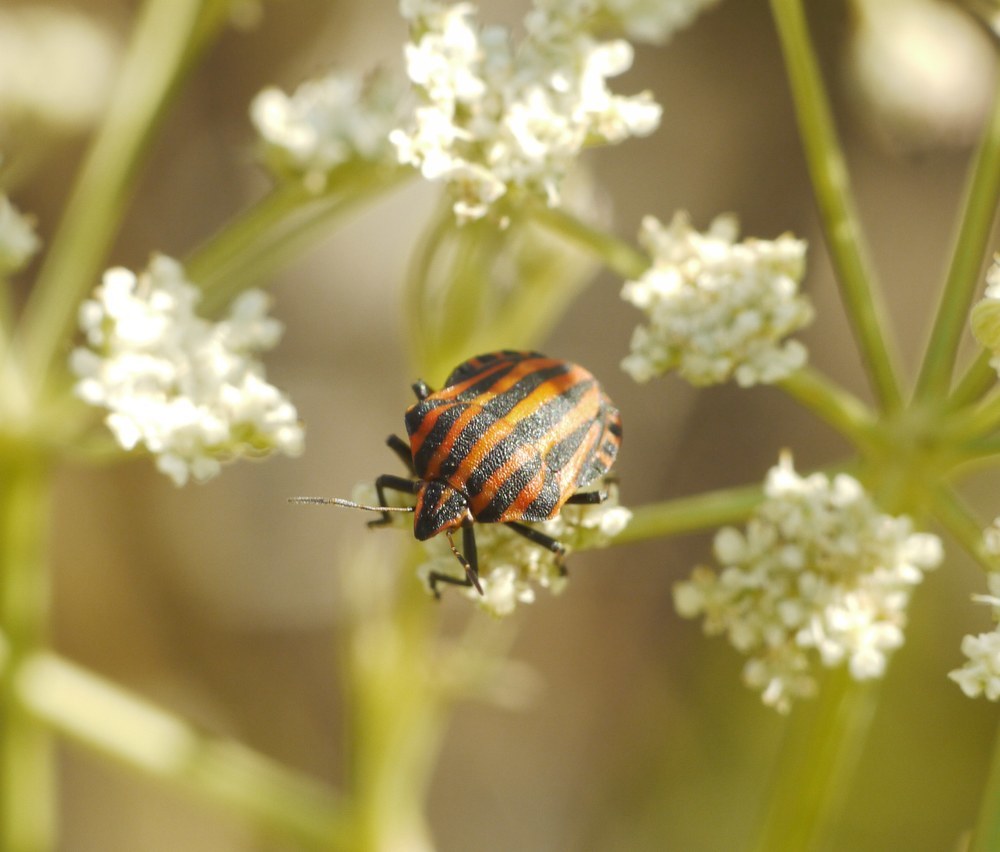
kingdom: Animalia
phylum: Arthropoda
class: Insecta
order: Hemiptera
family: Pentatomidae
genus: Graphosoma
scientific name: Graphosoma italicum
